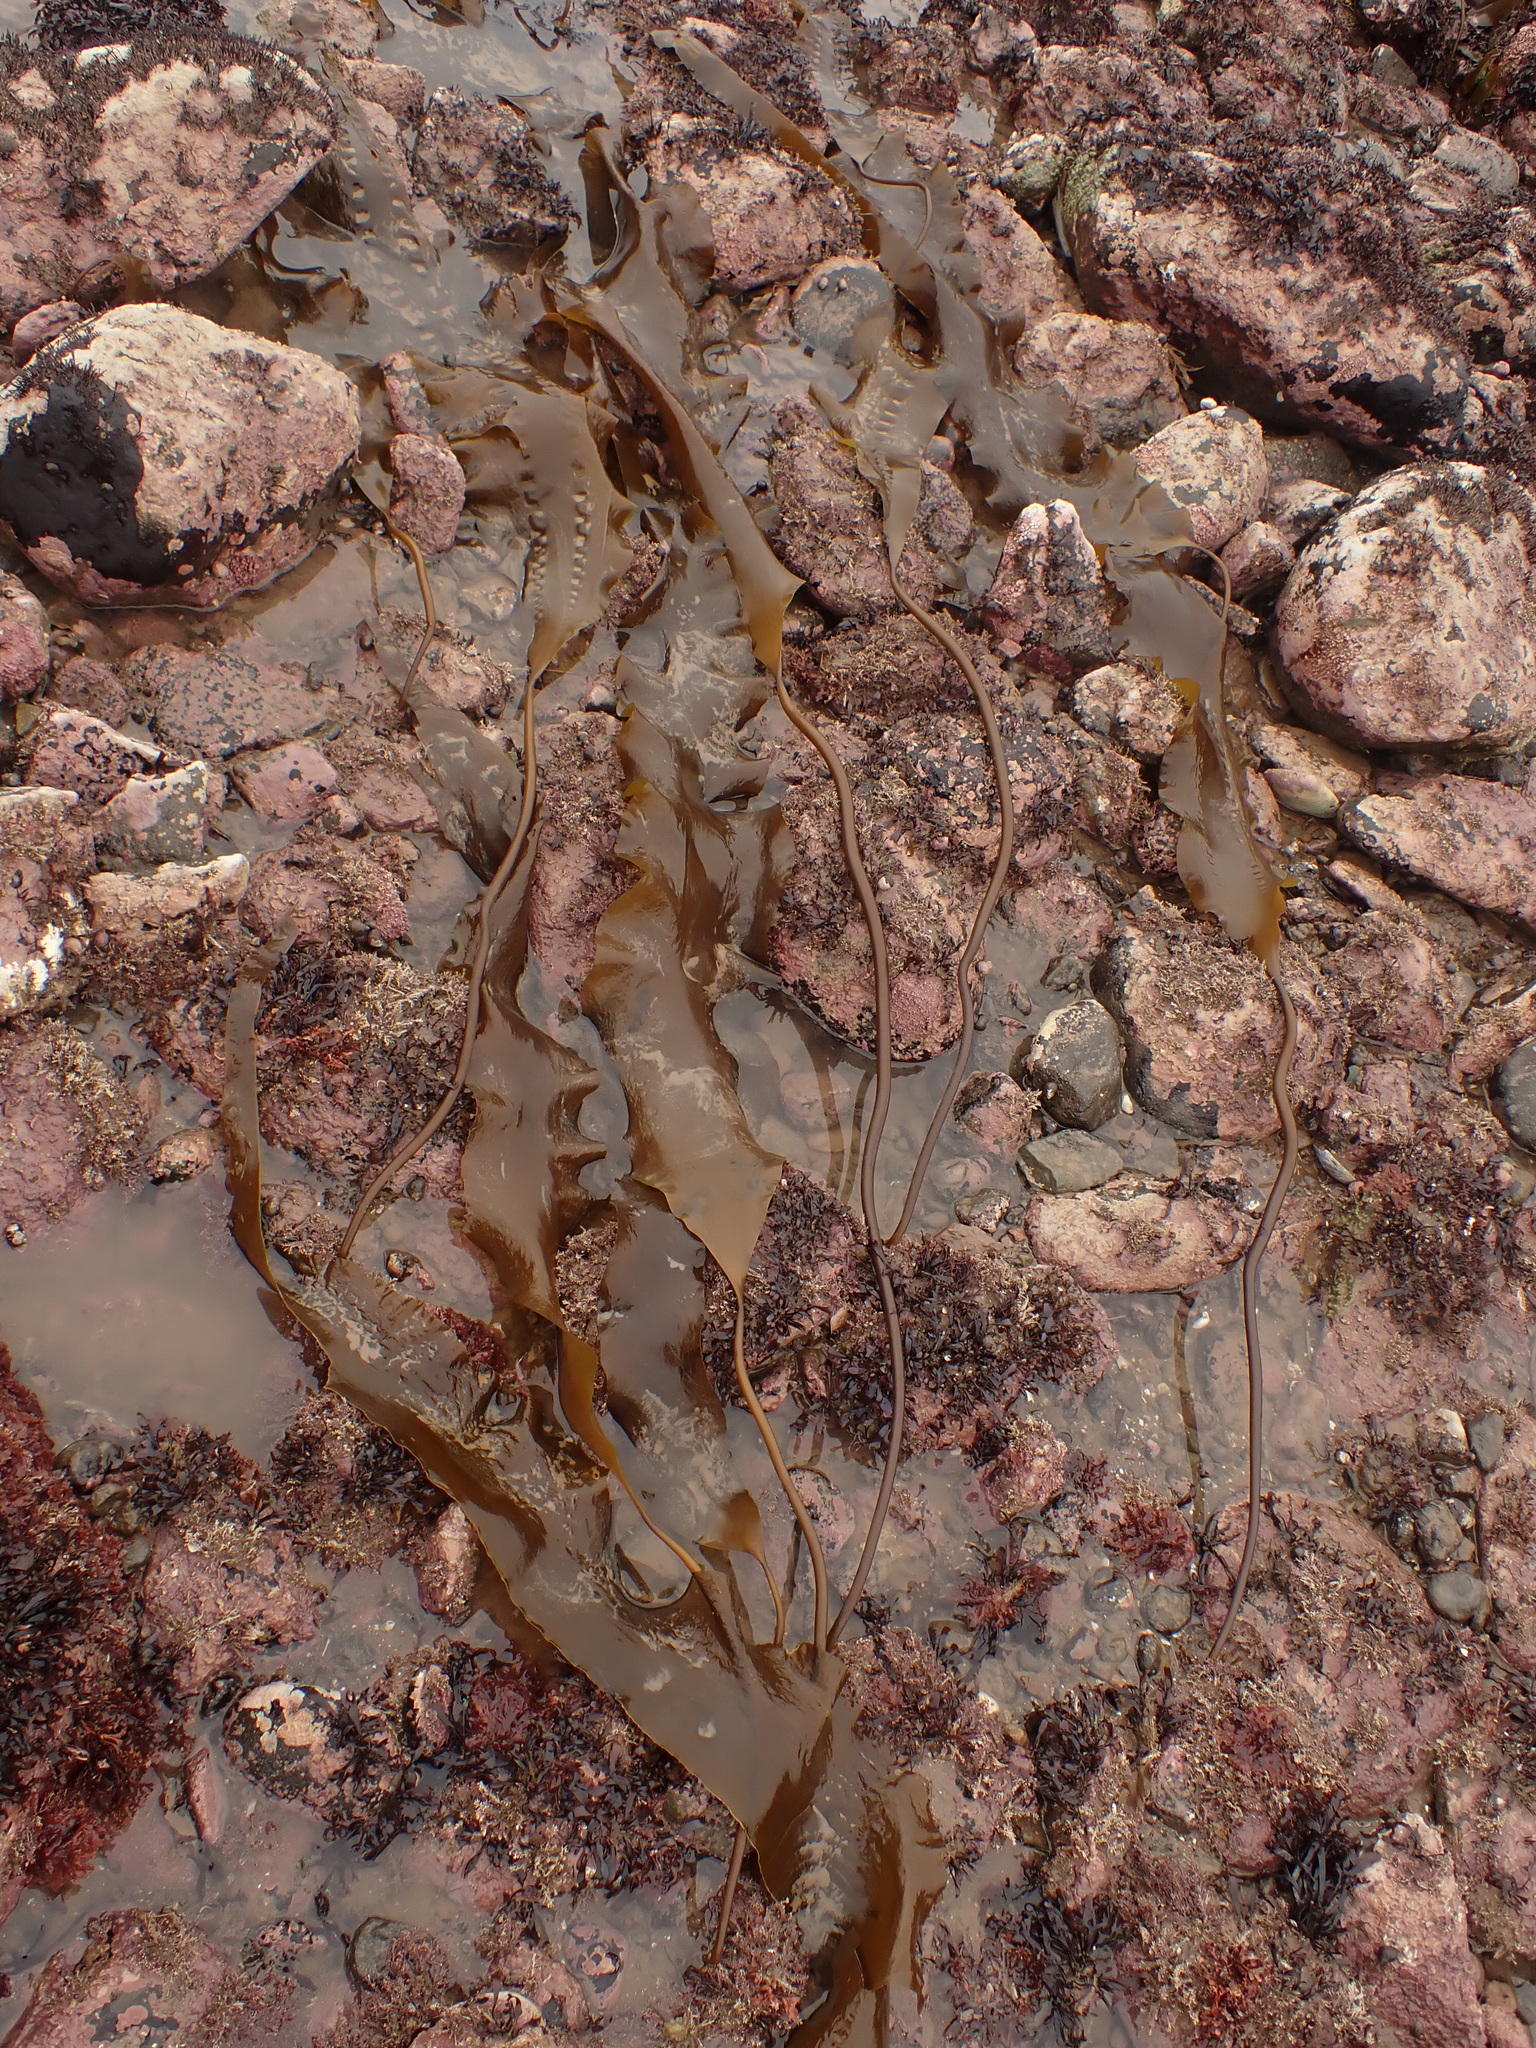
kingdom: Chromista
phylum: Ochrophyta
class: Phaeophyceae
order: Laminariales
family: Laminariaceae
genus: Saccharina
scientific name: Saccharina latissima
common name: Poor man's weather glass
